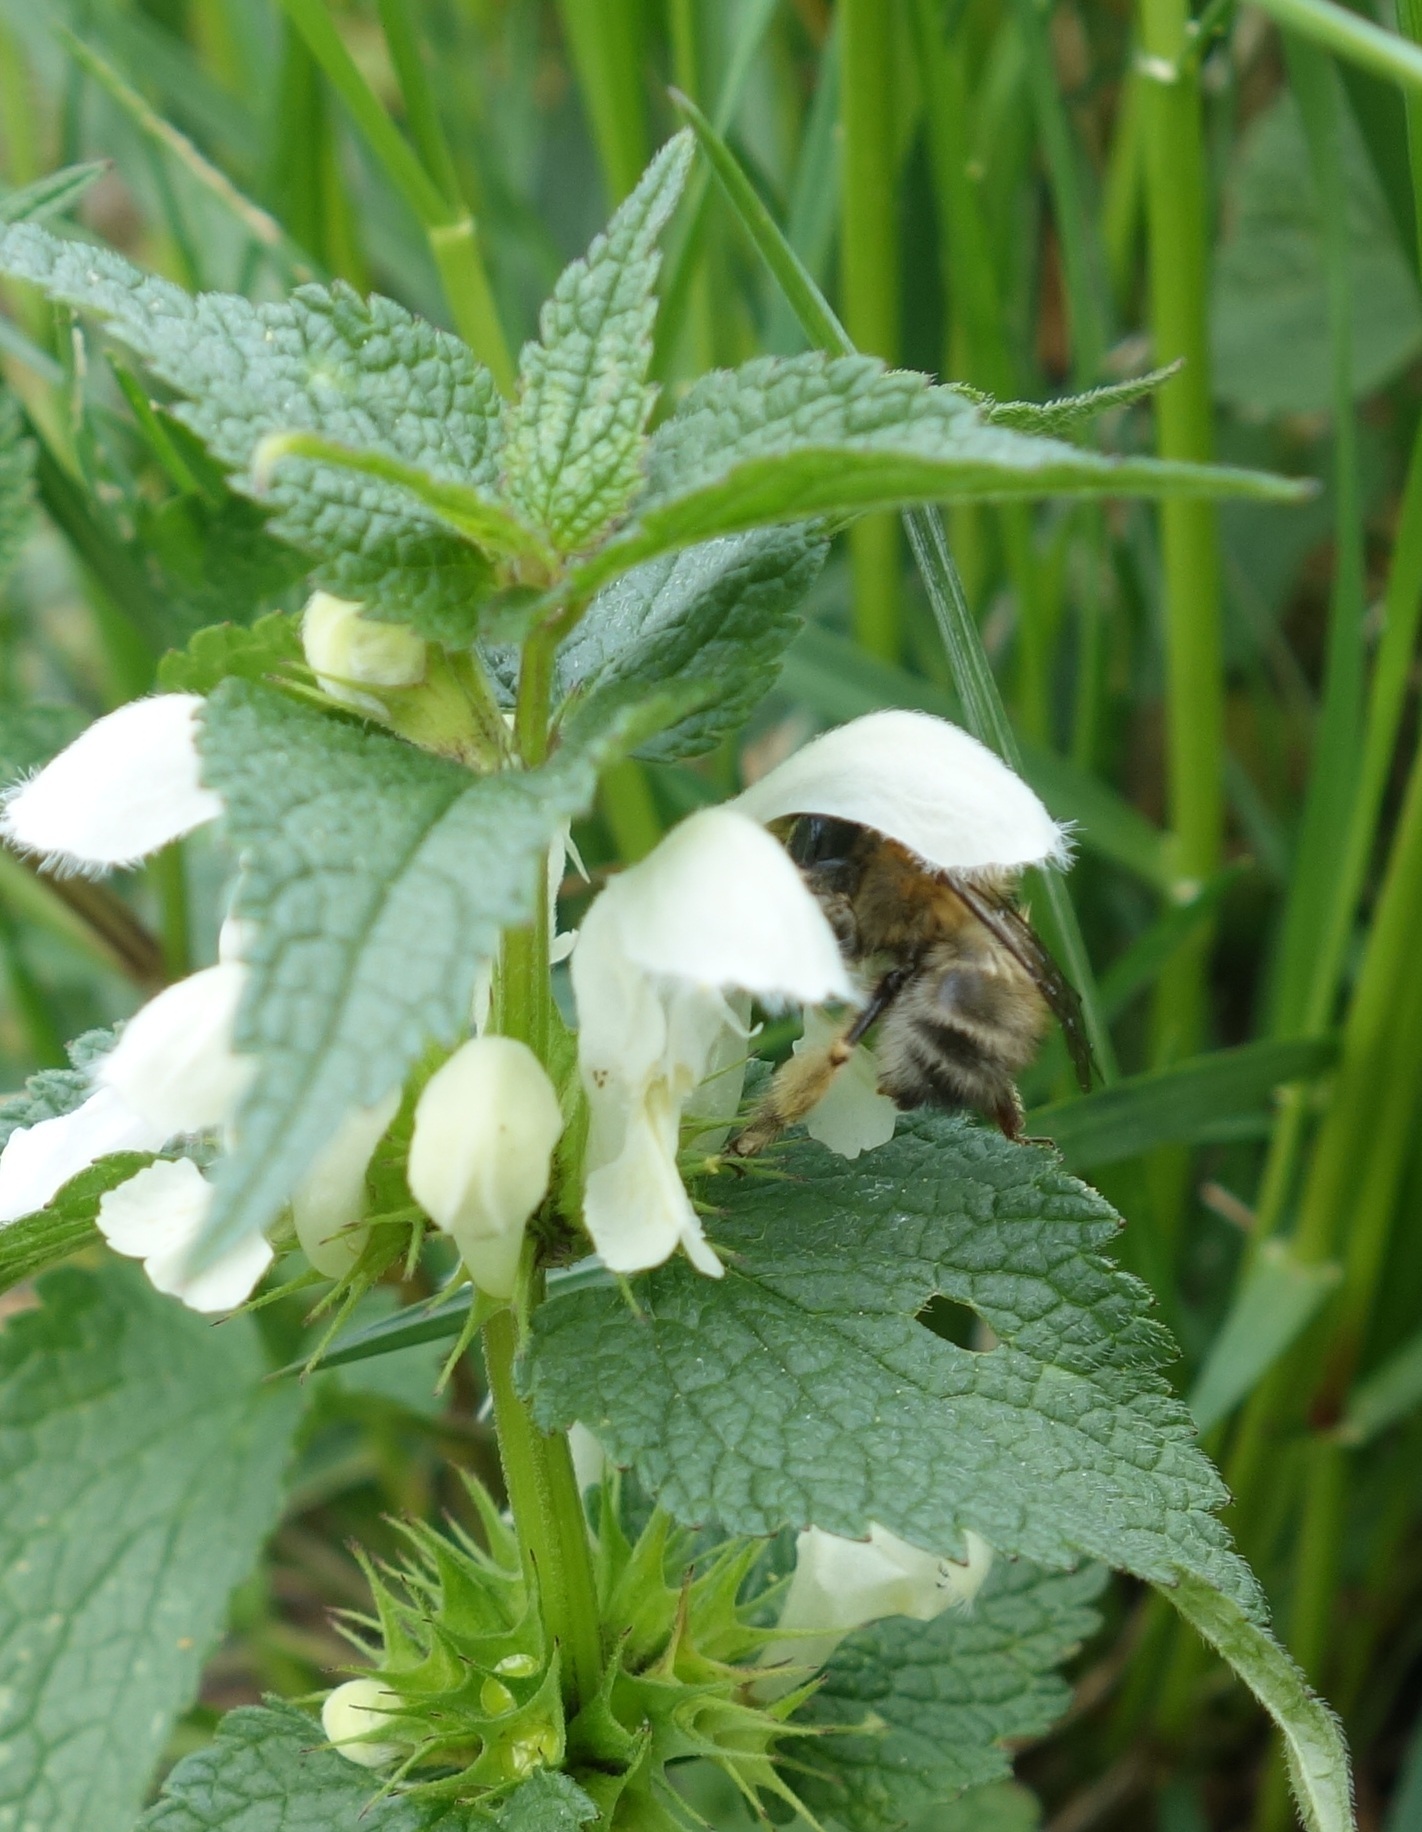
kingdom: Animalia
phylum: Arthropoda
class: Insecta
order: Hymenoptera
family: Apidae
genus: Anthophora
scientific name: Anthophora plumipes
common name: Hairy-footed flower bee
